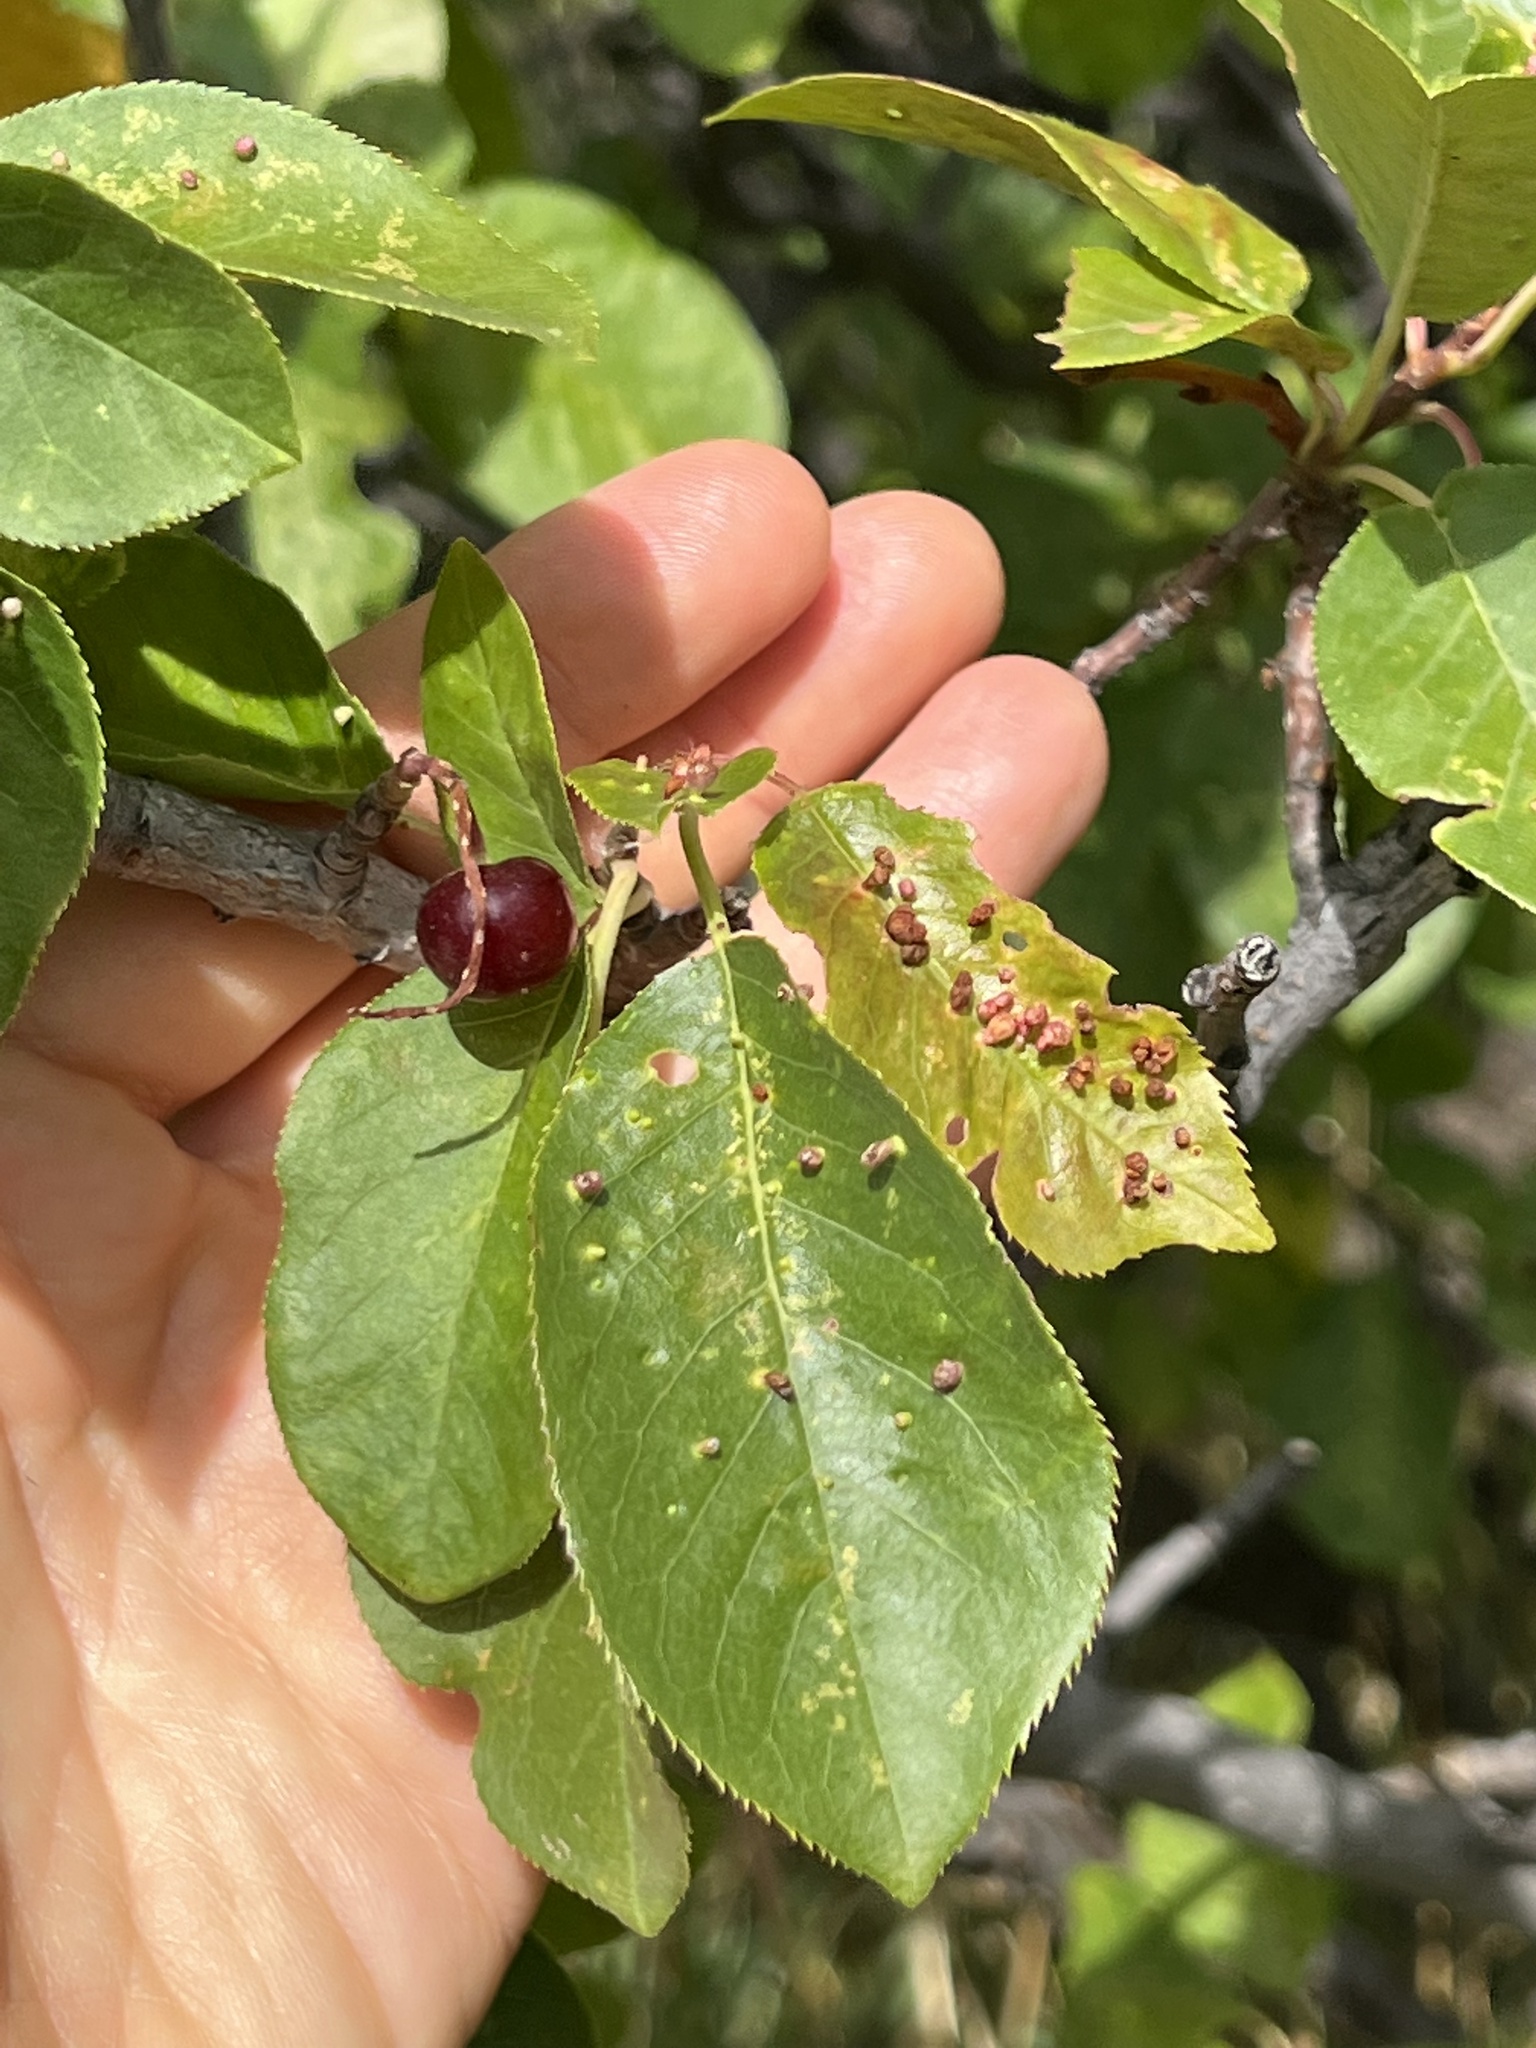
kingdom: Plantae
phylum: Tracheophyta
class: Magnoliopsida
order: Rosales
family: Rosaceae
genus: Prunus
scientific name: Prunus virginiana
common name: Chokecherry
